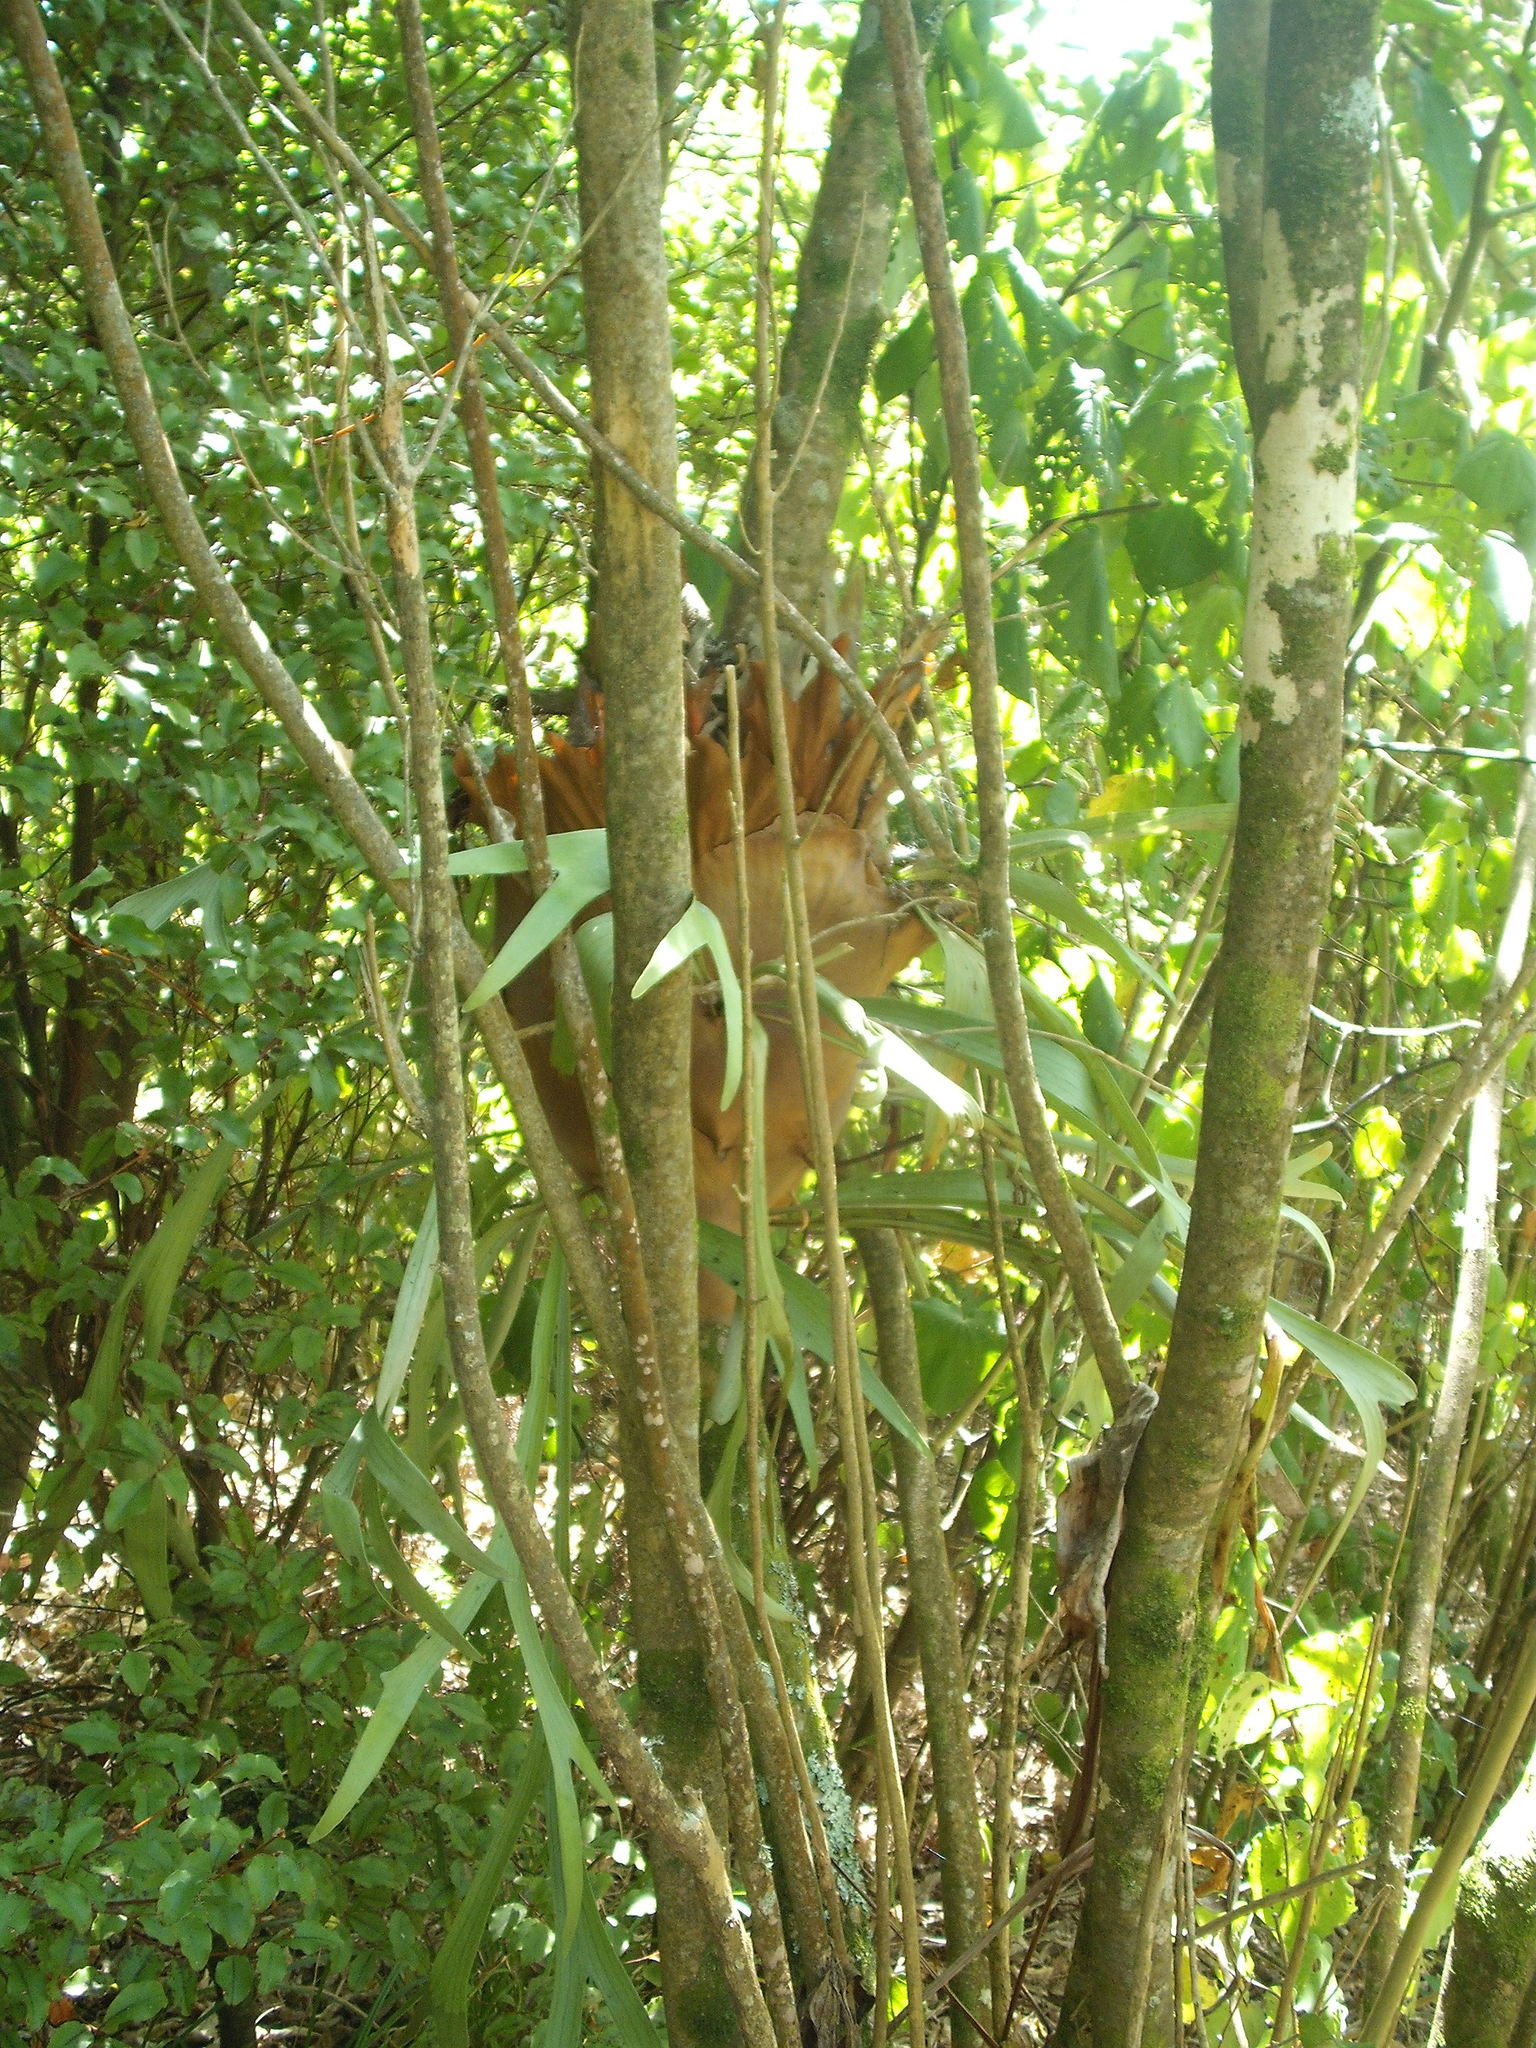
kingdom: Plantae
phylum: Tracheophyta
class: Polypodiopsida
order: Polypodiales
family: Polypodiaceae
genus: Platycerium
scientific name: Platycerium bifurcatum
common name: Elkhorn fern
